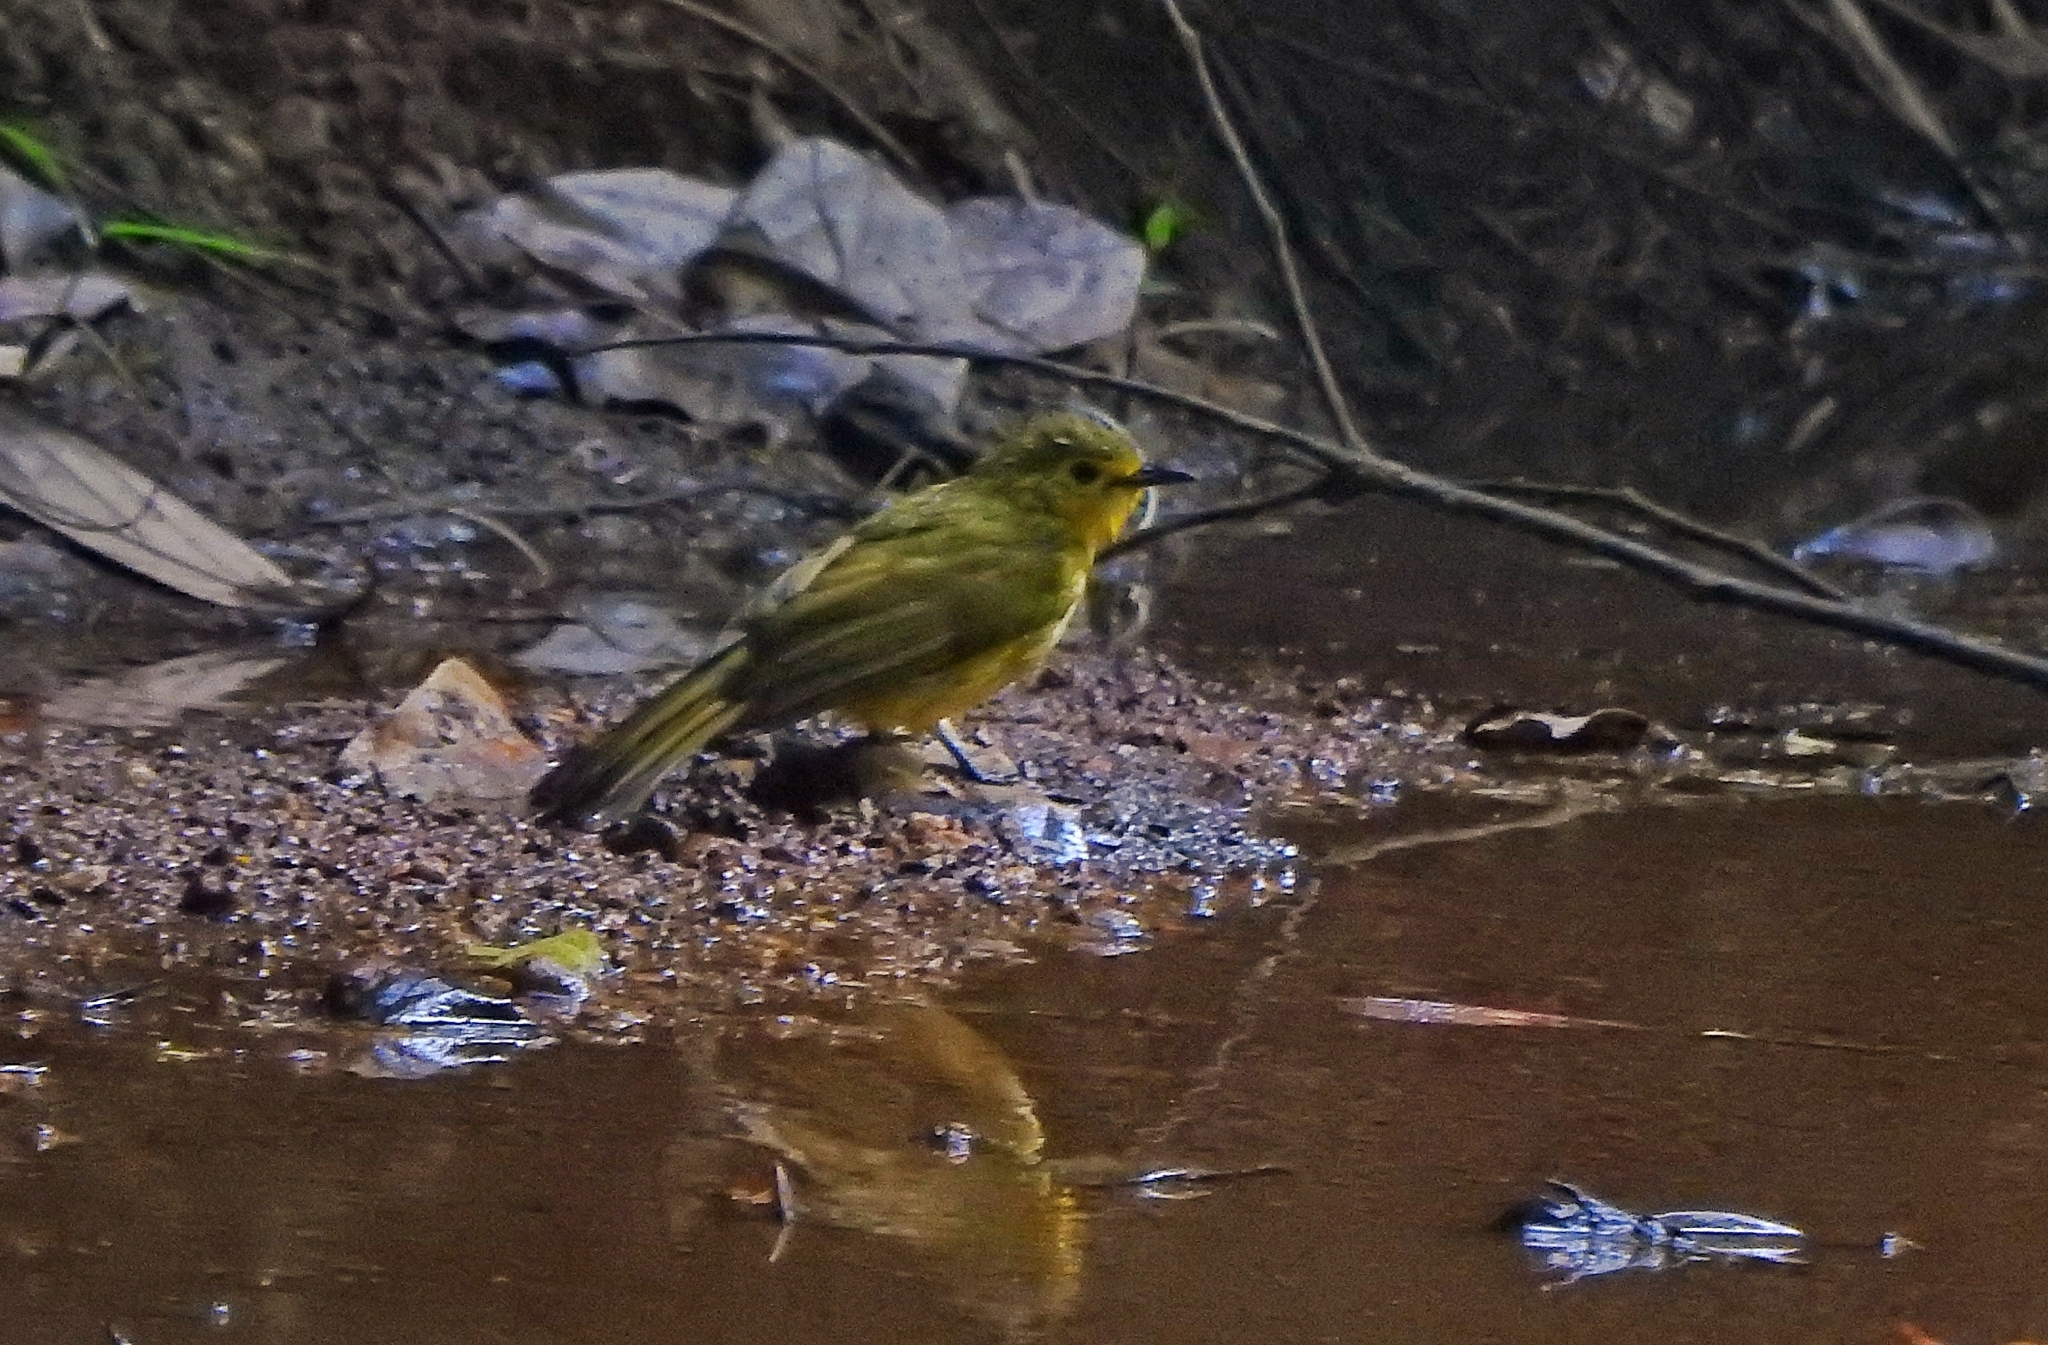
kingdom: Animalia
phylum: Chordata
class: Aves
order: Passeriformes
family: Pycnonotidae
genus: Acritillas
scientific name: Acritillas indica
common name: Yellow-browed bulbul
